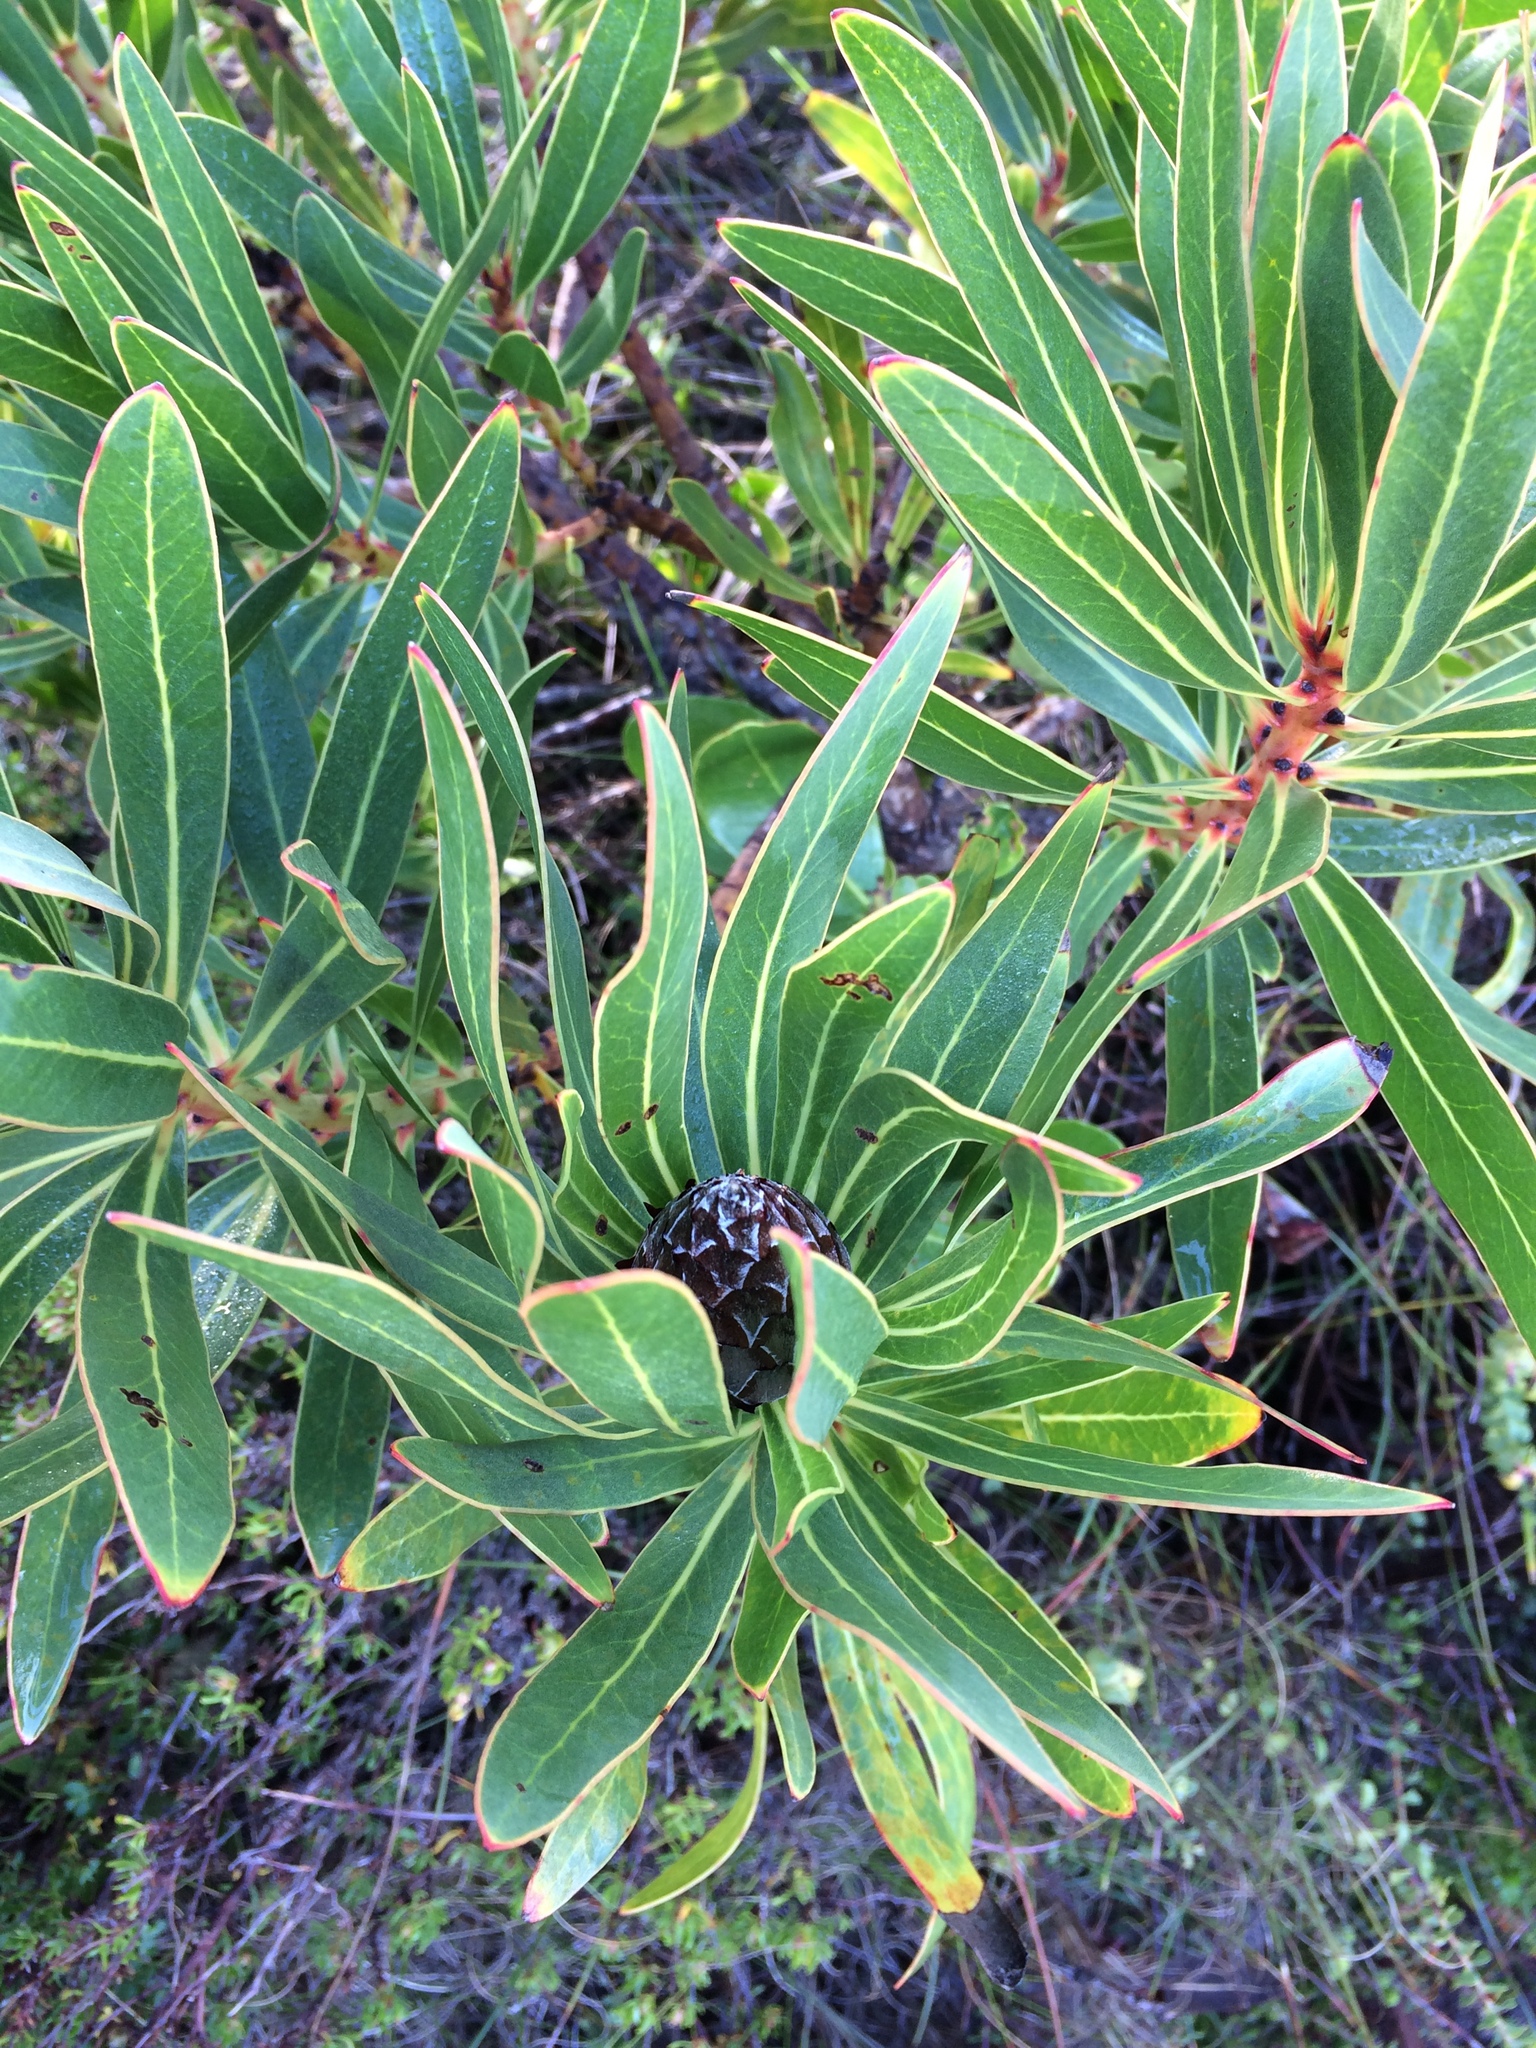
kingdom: Plantae
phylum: Tracheophyta
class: Magnoliopsida
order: Proteales
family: Proteaceae
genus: Protea
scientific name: Protea lepidocarpodendron
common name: Black-bearded protea
